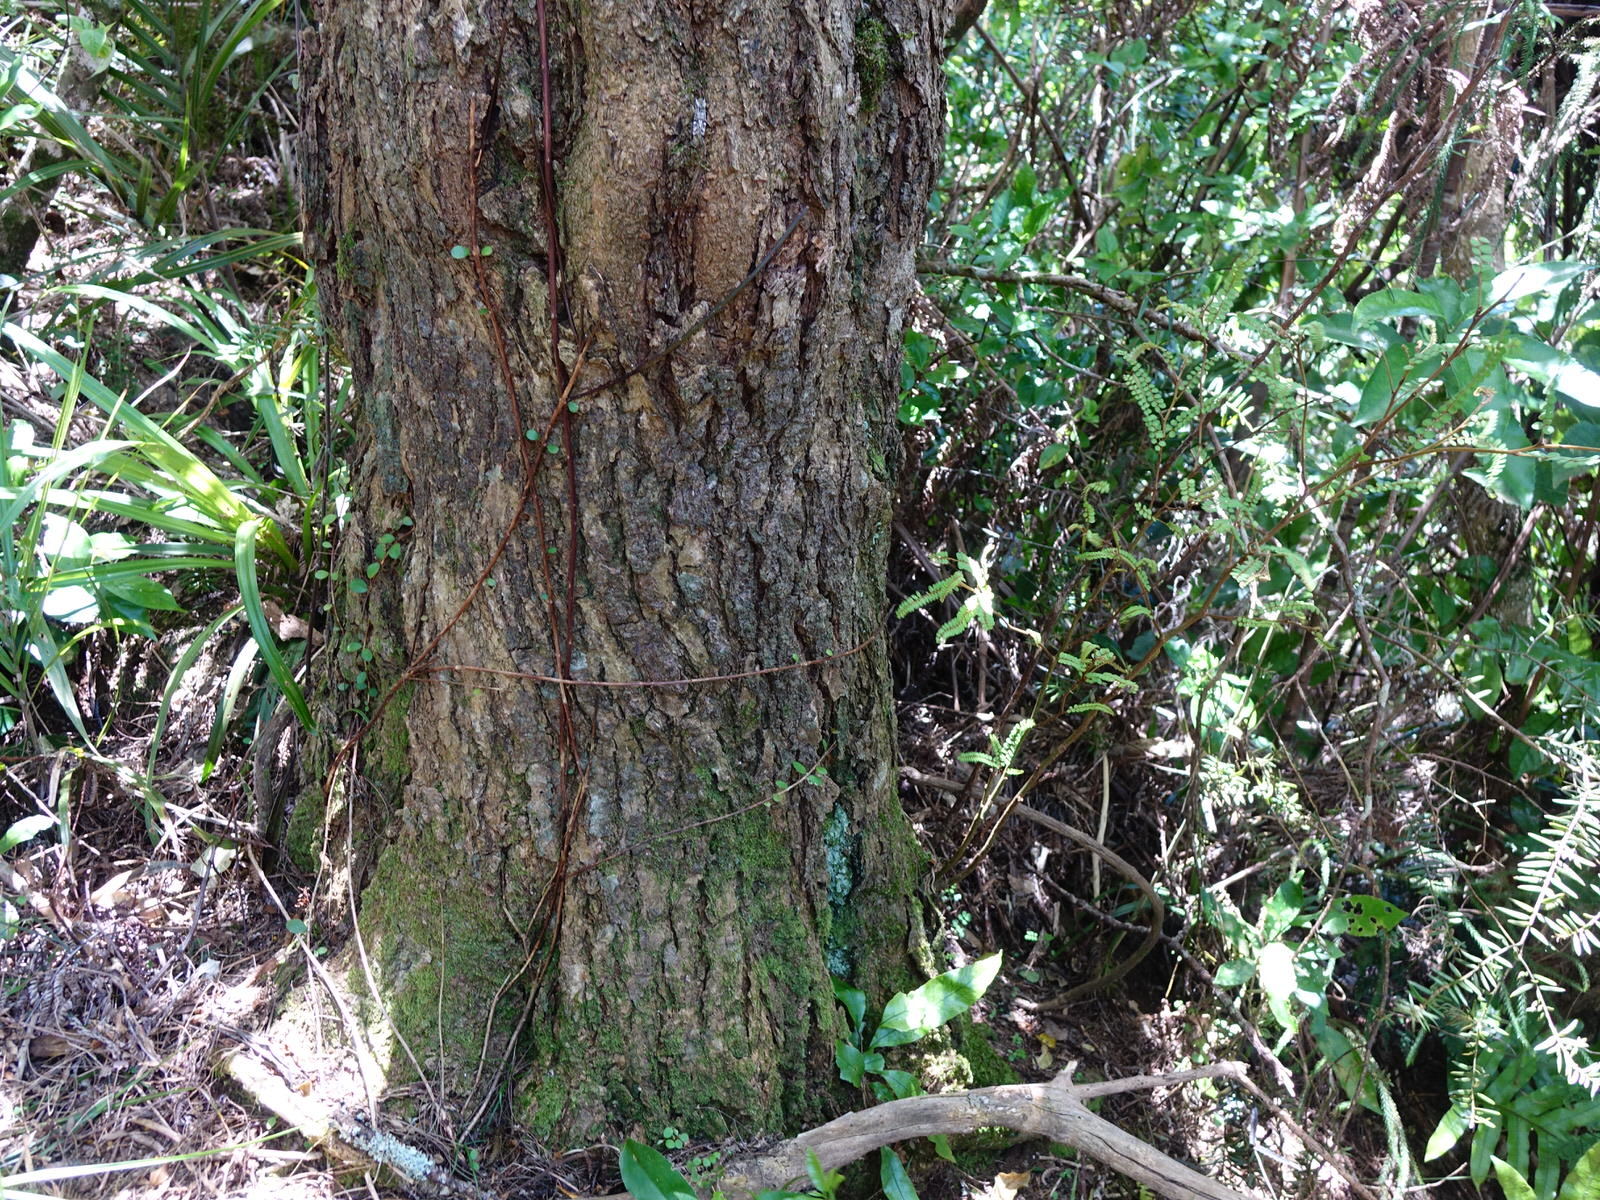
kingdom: Plantae
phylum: Tracheophyta
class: Magnoliopsida
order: Fabales
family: Fabaceae
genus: Sophora
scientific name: Sophora chathamica
